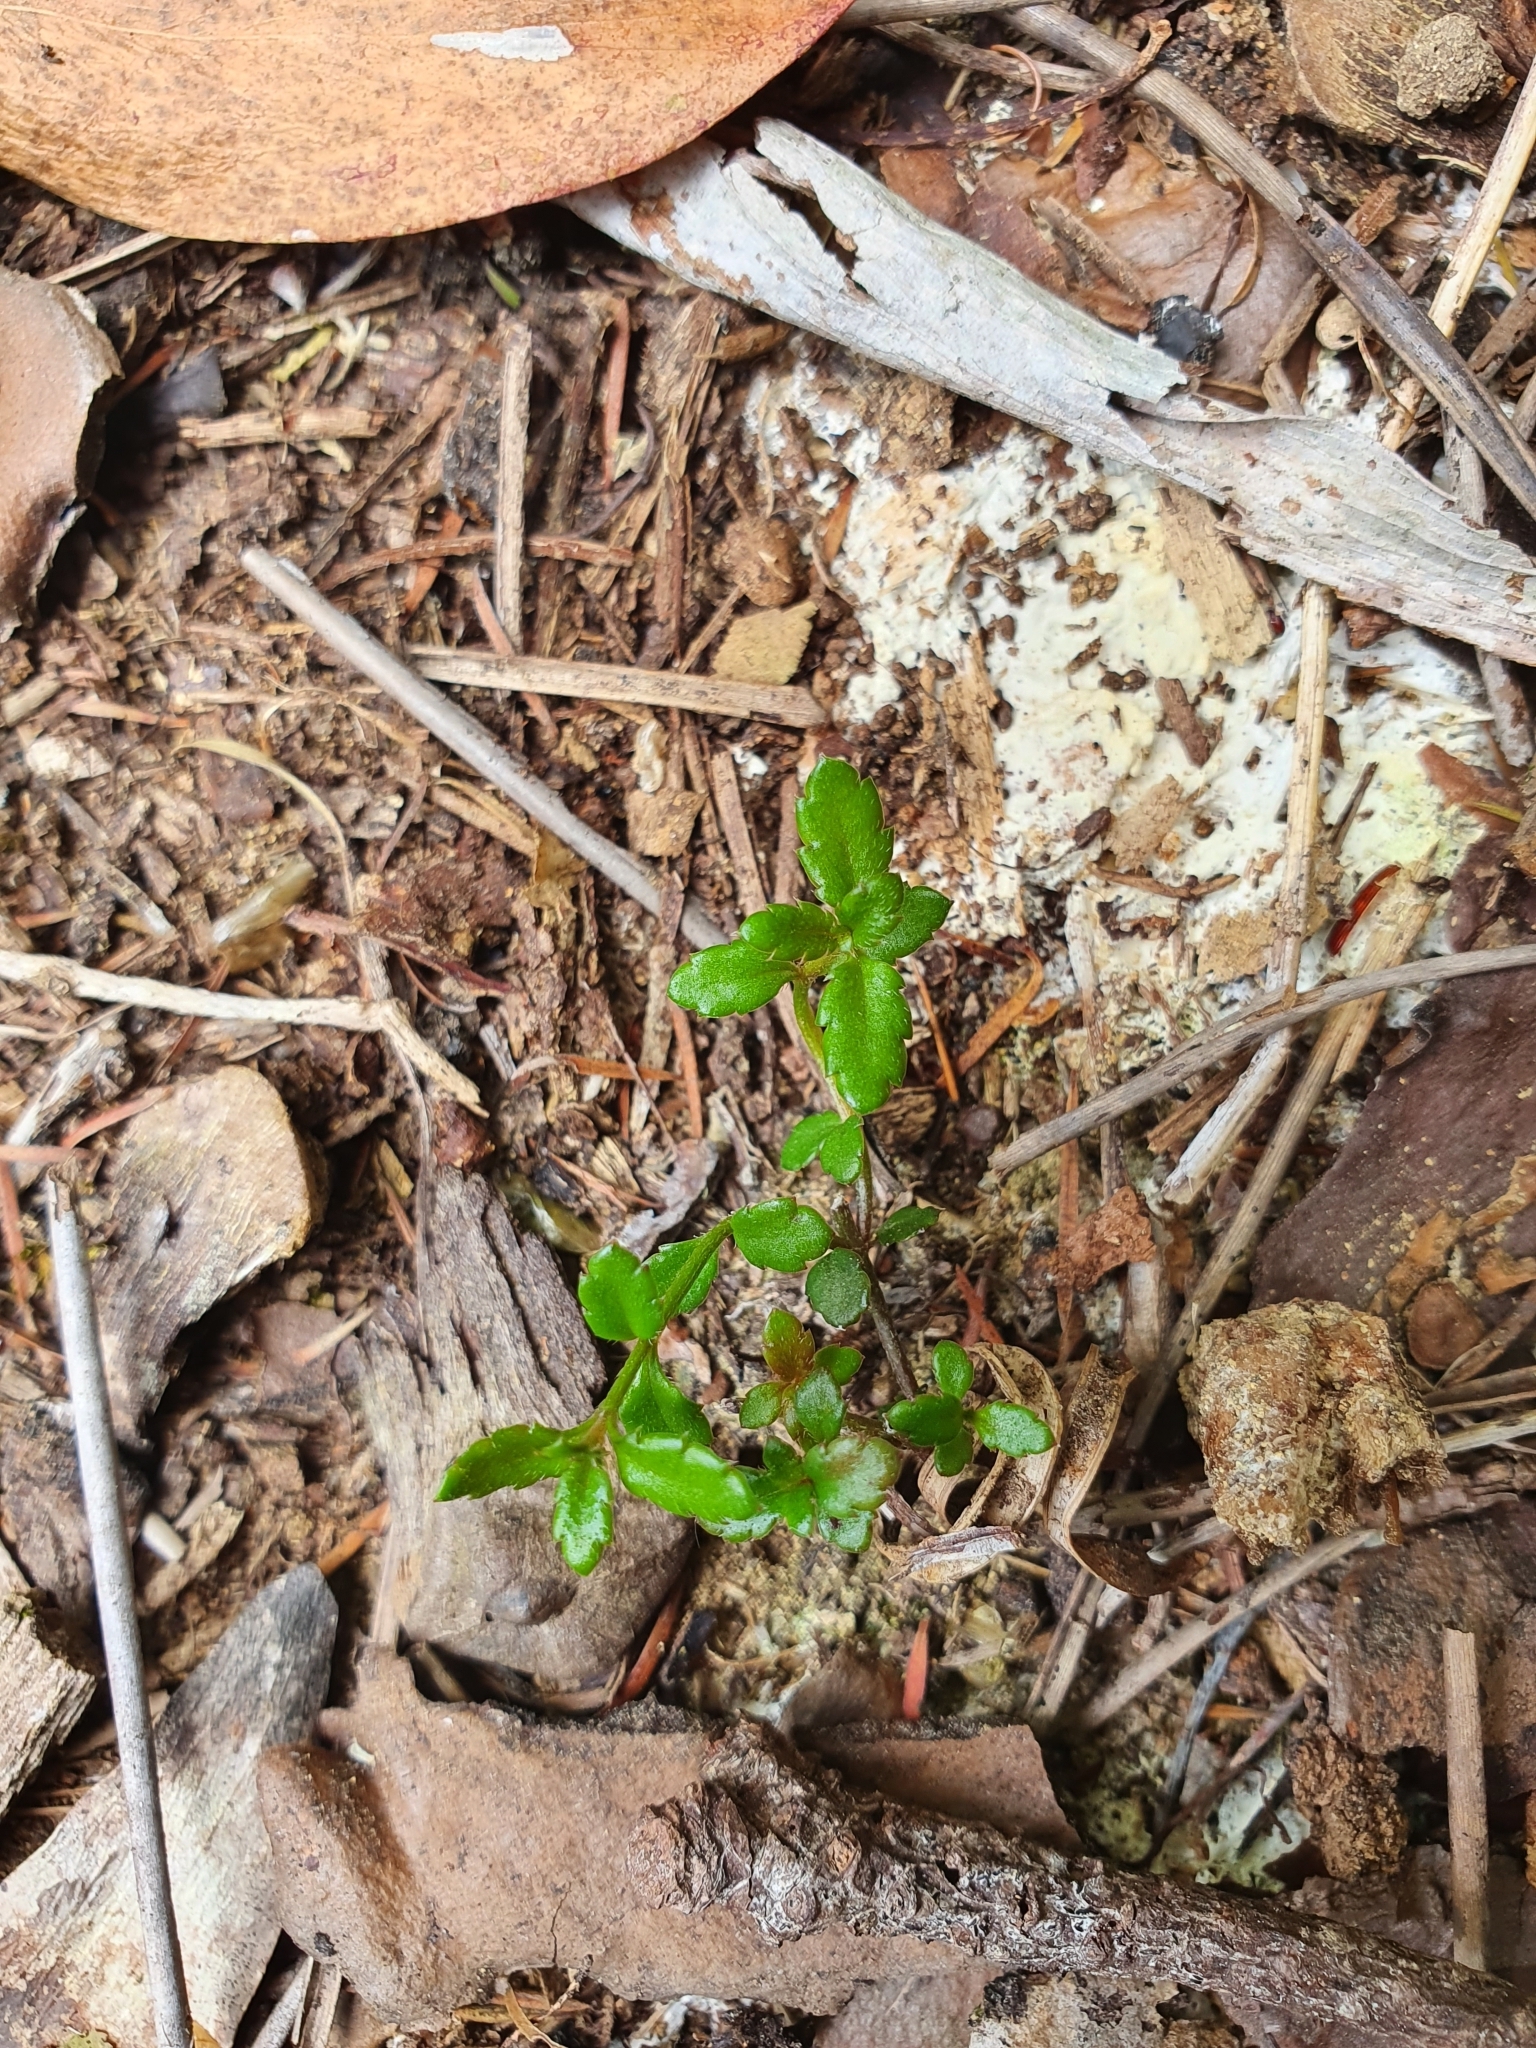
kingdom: Plantae
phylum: Tracheophyta
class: Magnoliopsida
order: Saxifragales
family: Haloragaceae
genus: Gonocarpus
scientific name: Gonocarpus incanus
